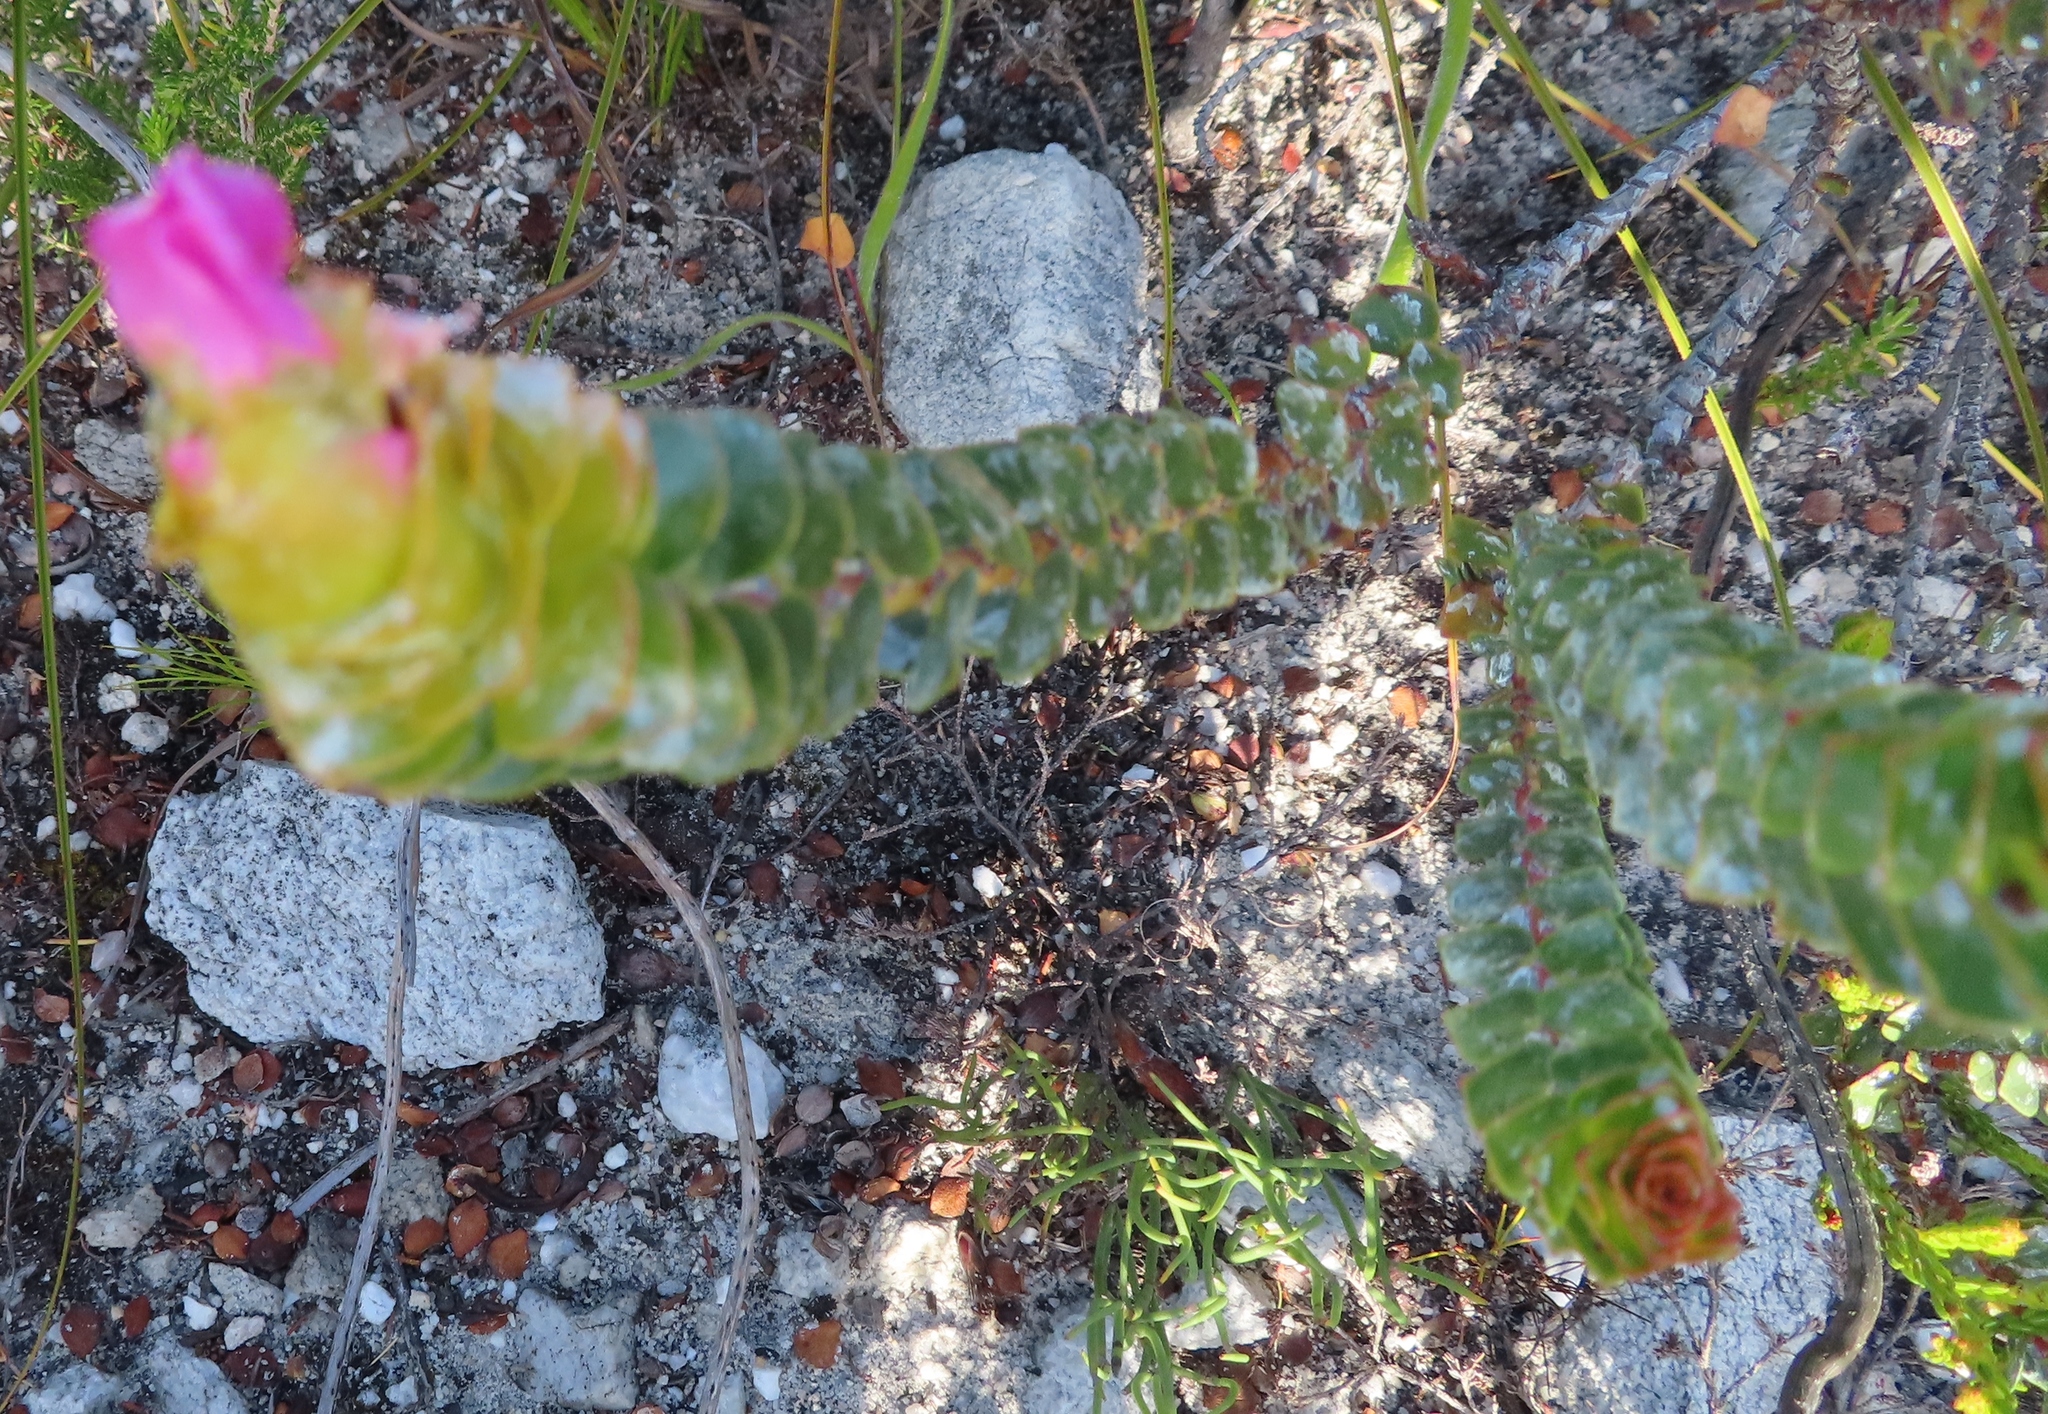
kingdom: Plantae
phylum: Tracheophyta
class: Magnoliopsida
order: Myrtales
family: Penaeaceae
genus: Saltera
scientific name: Saltera sarcocolla
